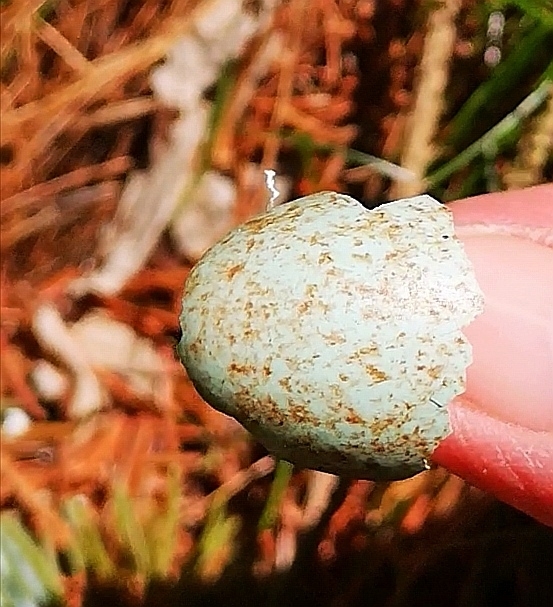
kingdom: Animalia
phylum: Chordata
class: Aves
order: Passeriformes
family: Turdidae
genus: Turdus
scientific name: Turdus merula
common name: Common blackbird
